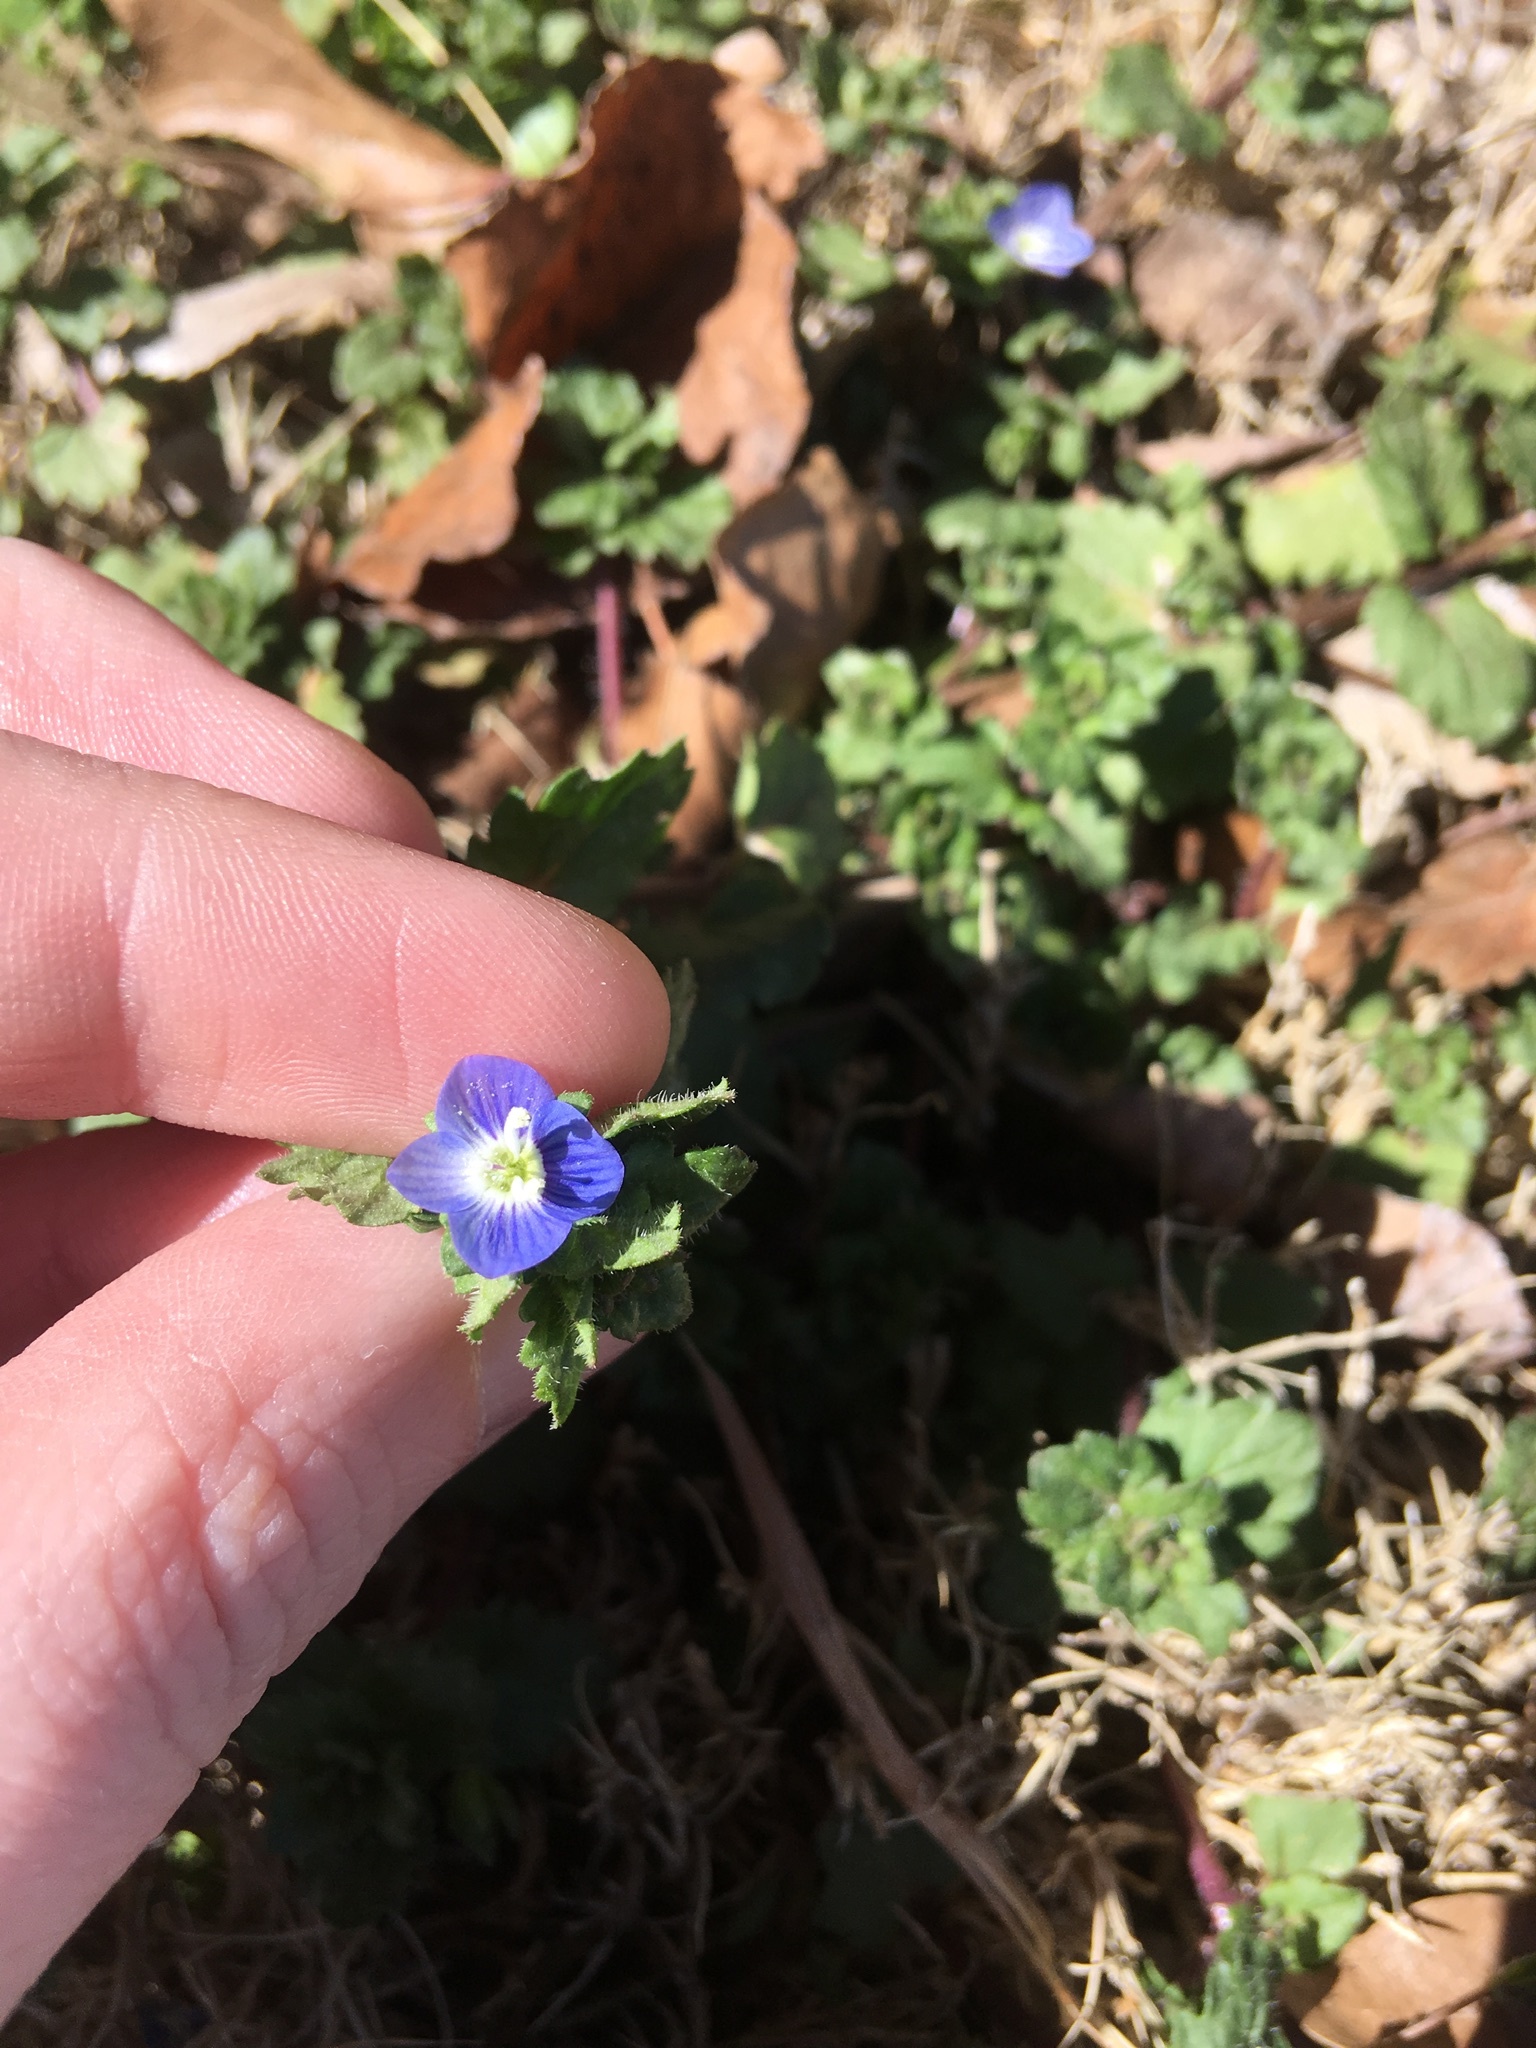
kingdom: Plantae
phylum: Tracheophyta
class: Magnoliopsida
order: Lamiales
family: Plantaginaceae
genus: Veronica
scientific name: Veronica persica
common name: Common field-speedwell
